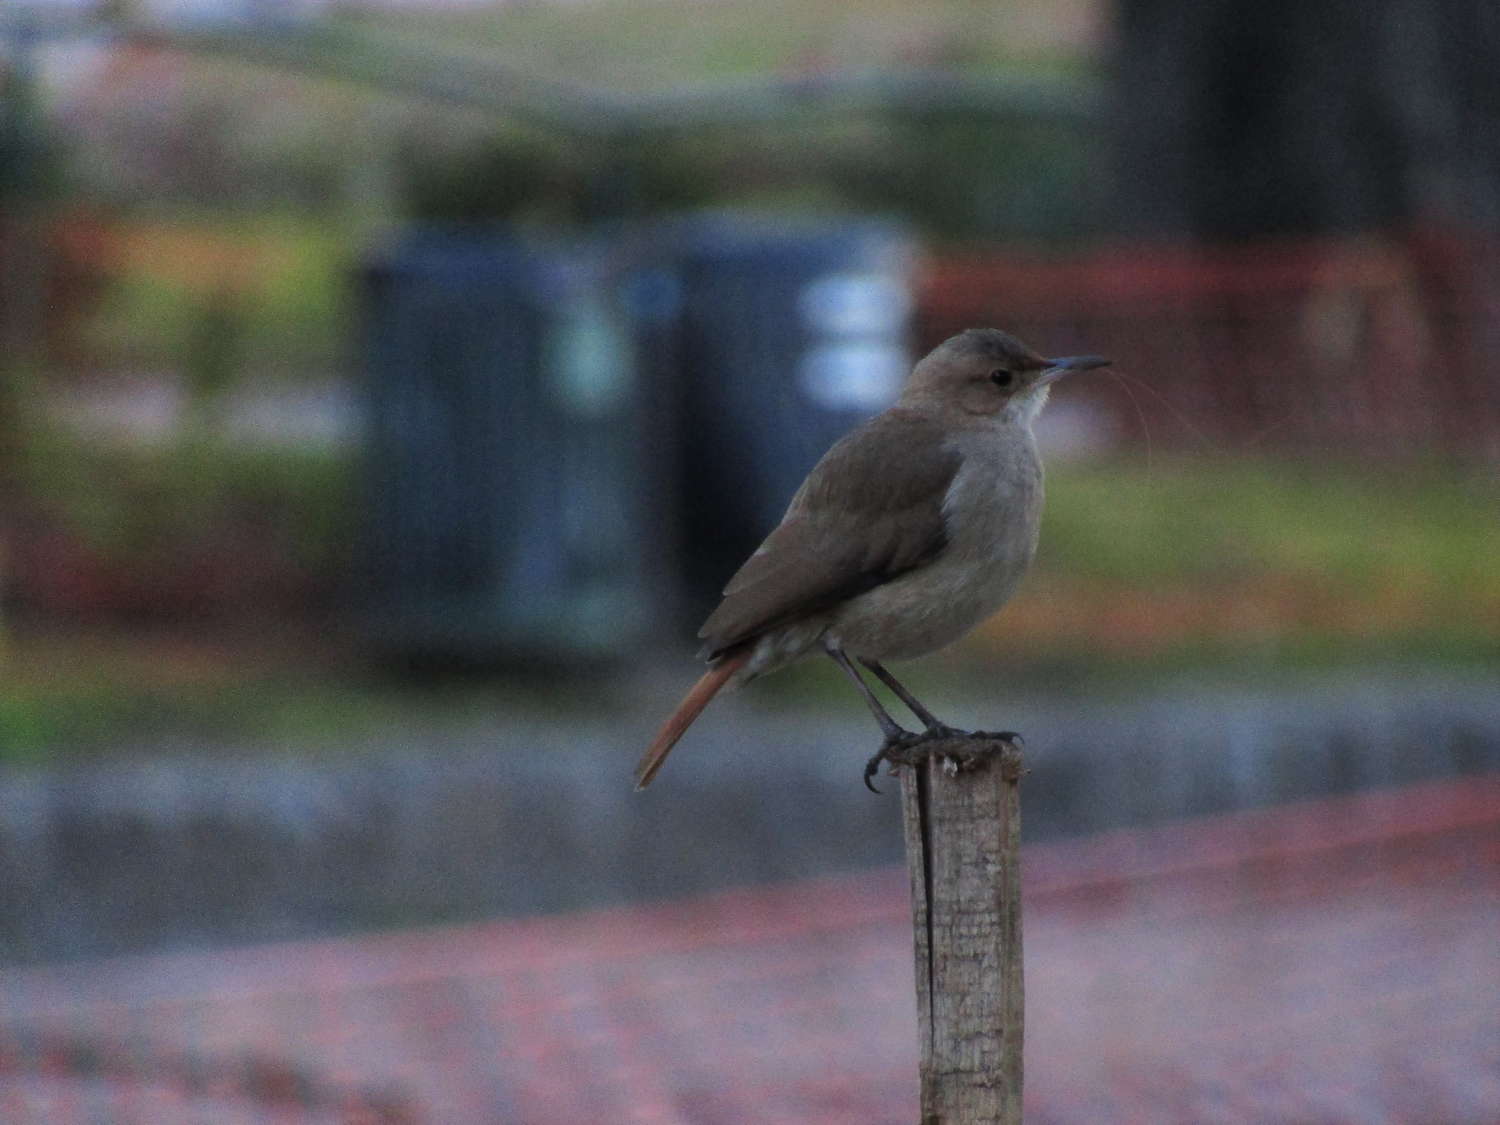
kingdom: Animalia
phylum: Chordata
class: Aves
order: Passeriformes
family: Furnariidae
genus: Furnarius
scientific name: Furnarius rufus
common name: Rufous hornero
